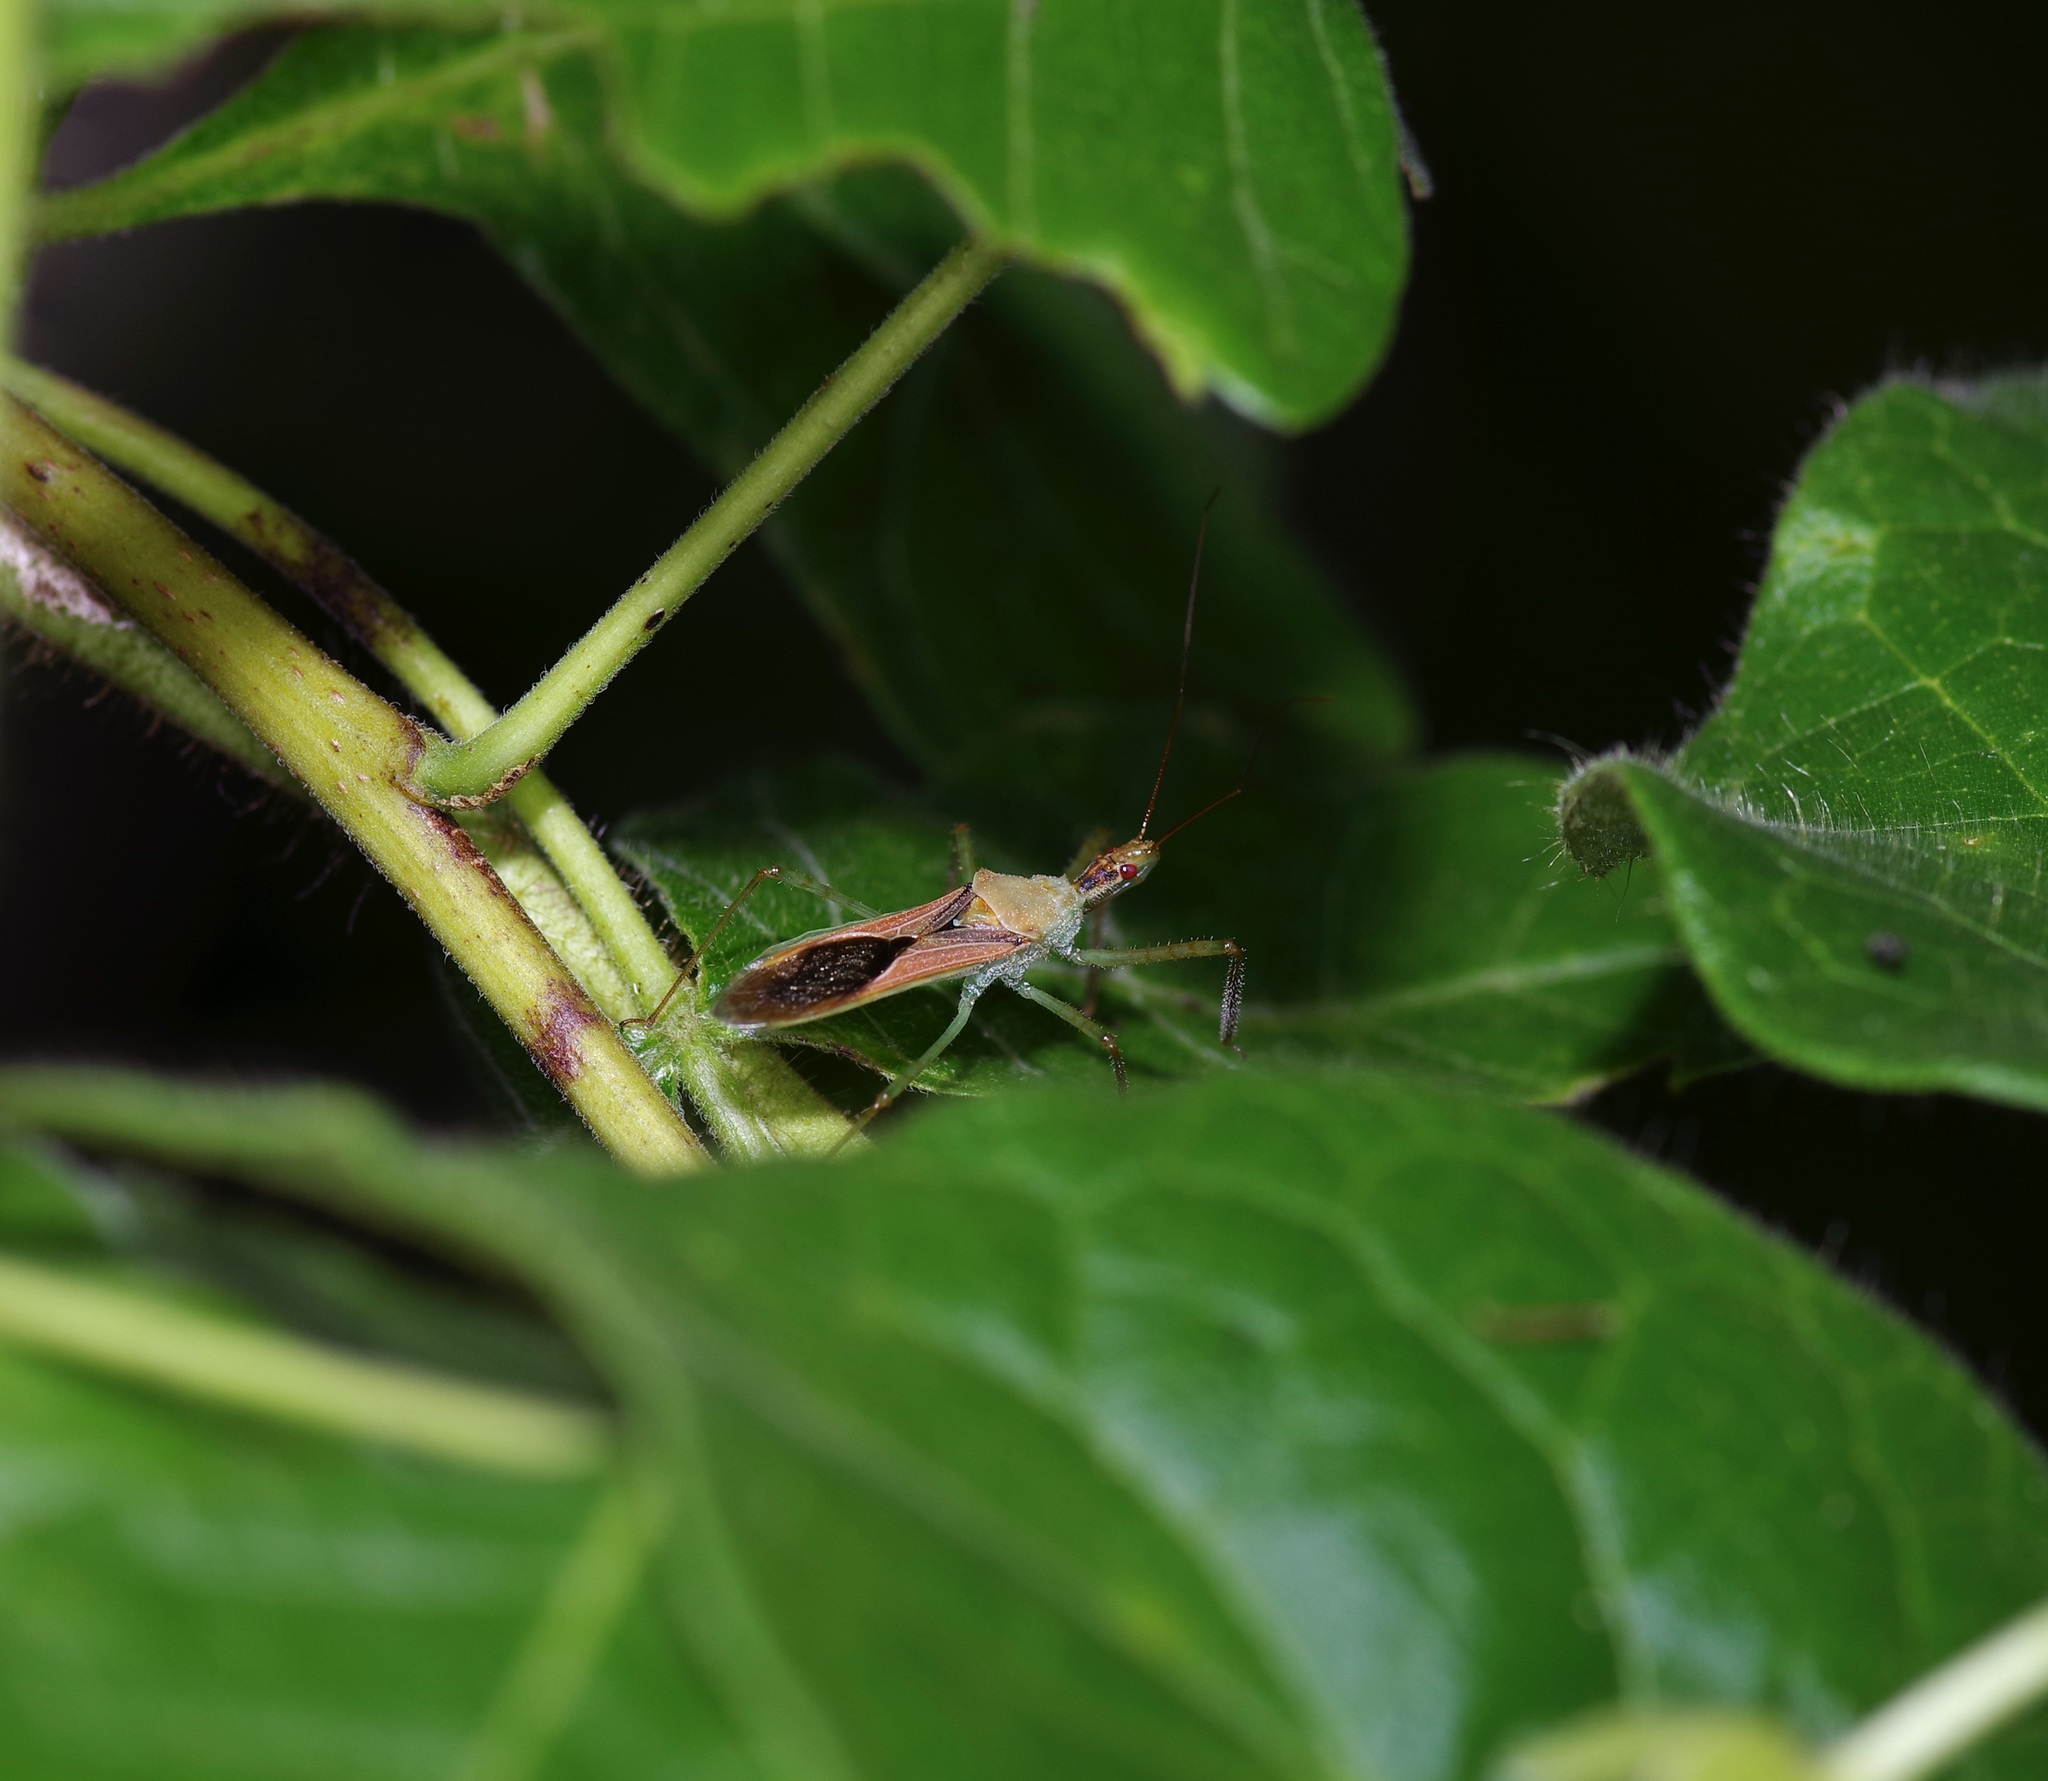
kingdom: Animalia
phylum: Arthropoda
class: Insecta
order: Hemiptera
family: Reduviidae
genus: Zelus
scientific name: Zelus renardii
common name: Assassin bug
